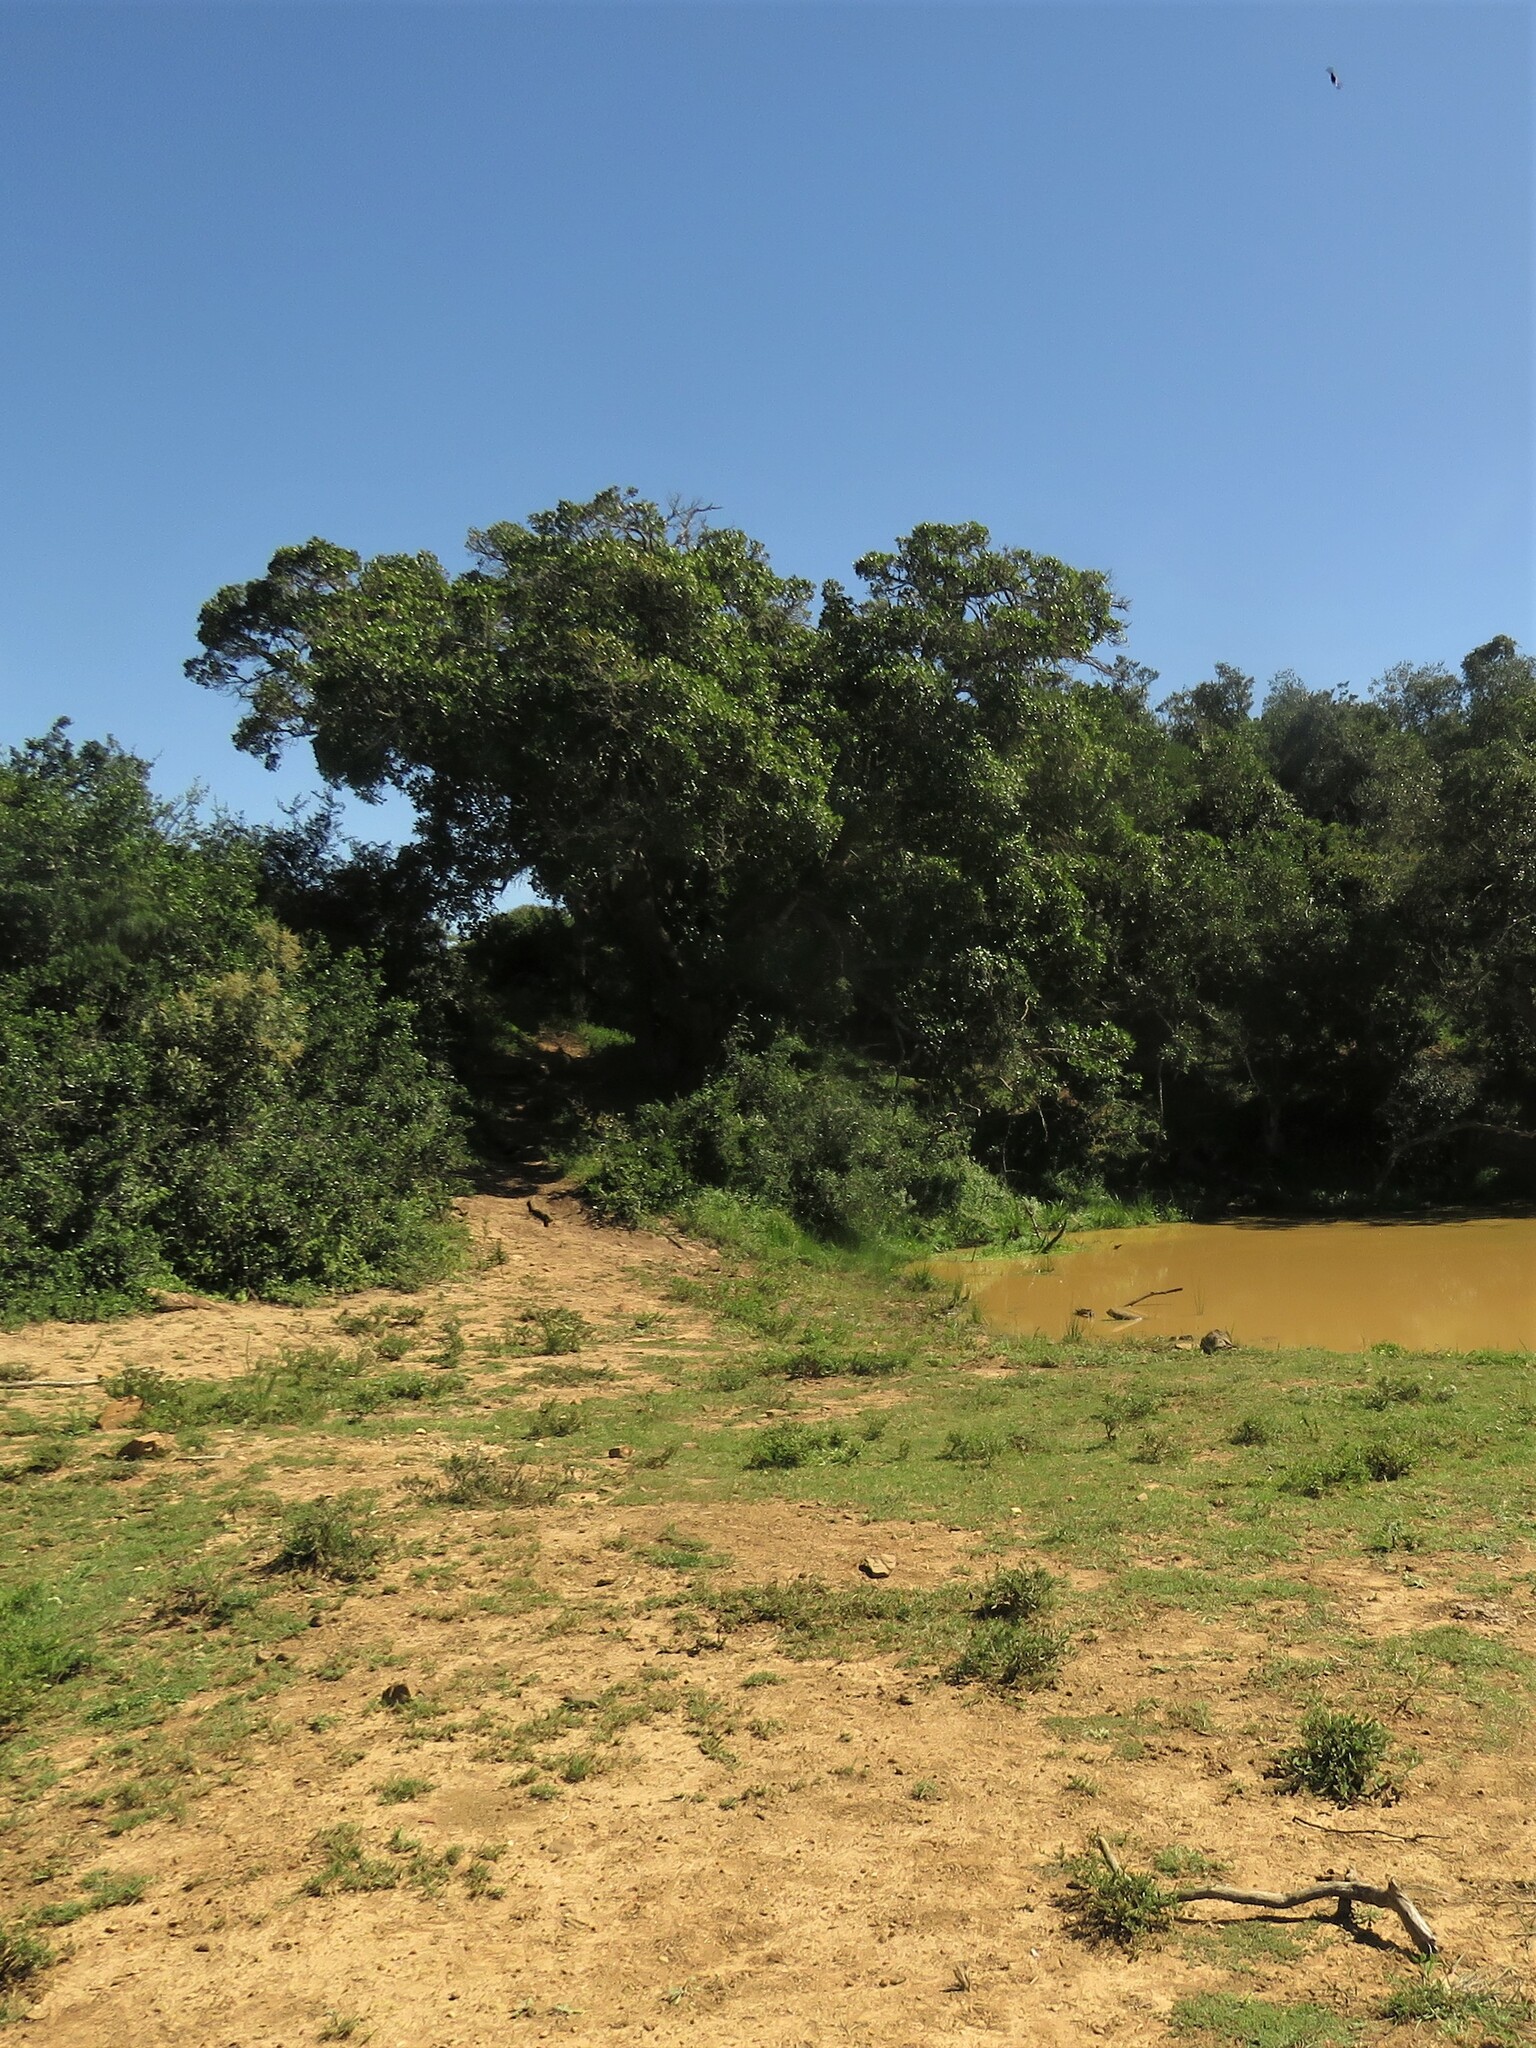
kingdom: Plantae
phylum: Tracheophyta
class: Magnoliopsida
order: Ericales
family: Sapotaceae
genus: Sideroxylon
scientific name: Sideroxylon inerme
